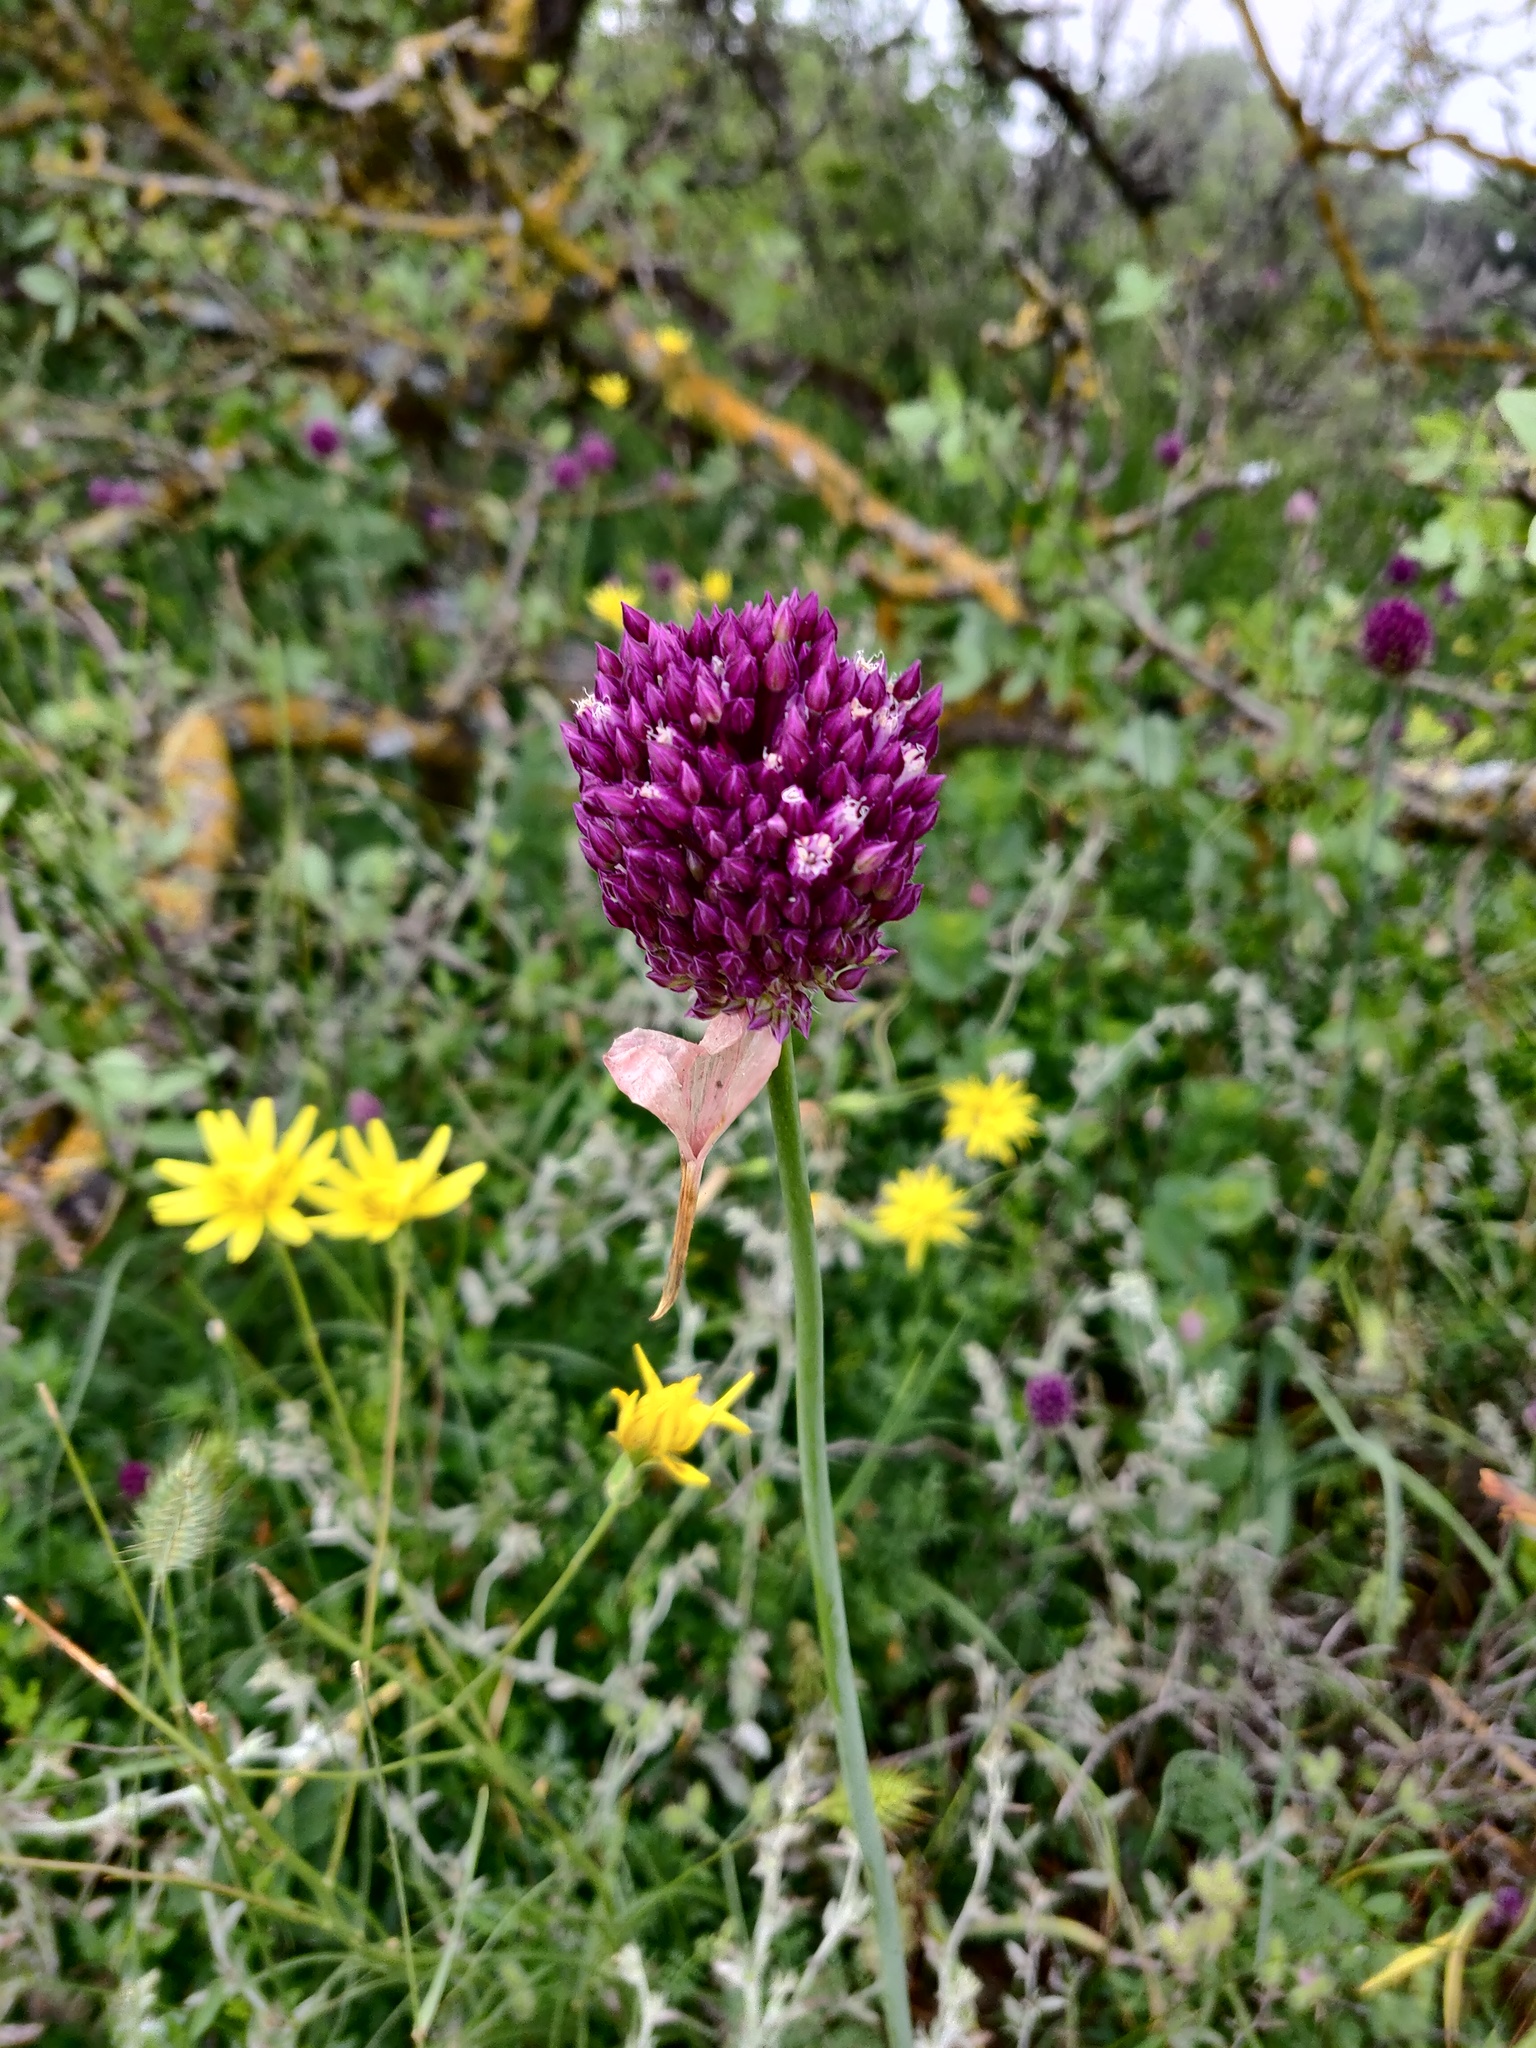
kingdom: Plantae
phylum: Tracheophyta
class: Liliopsida
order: Asparagales
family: Amaryllidaceae
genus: Allium
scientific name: Allium rotundum
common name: Sand leek
